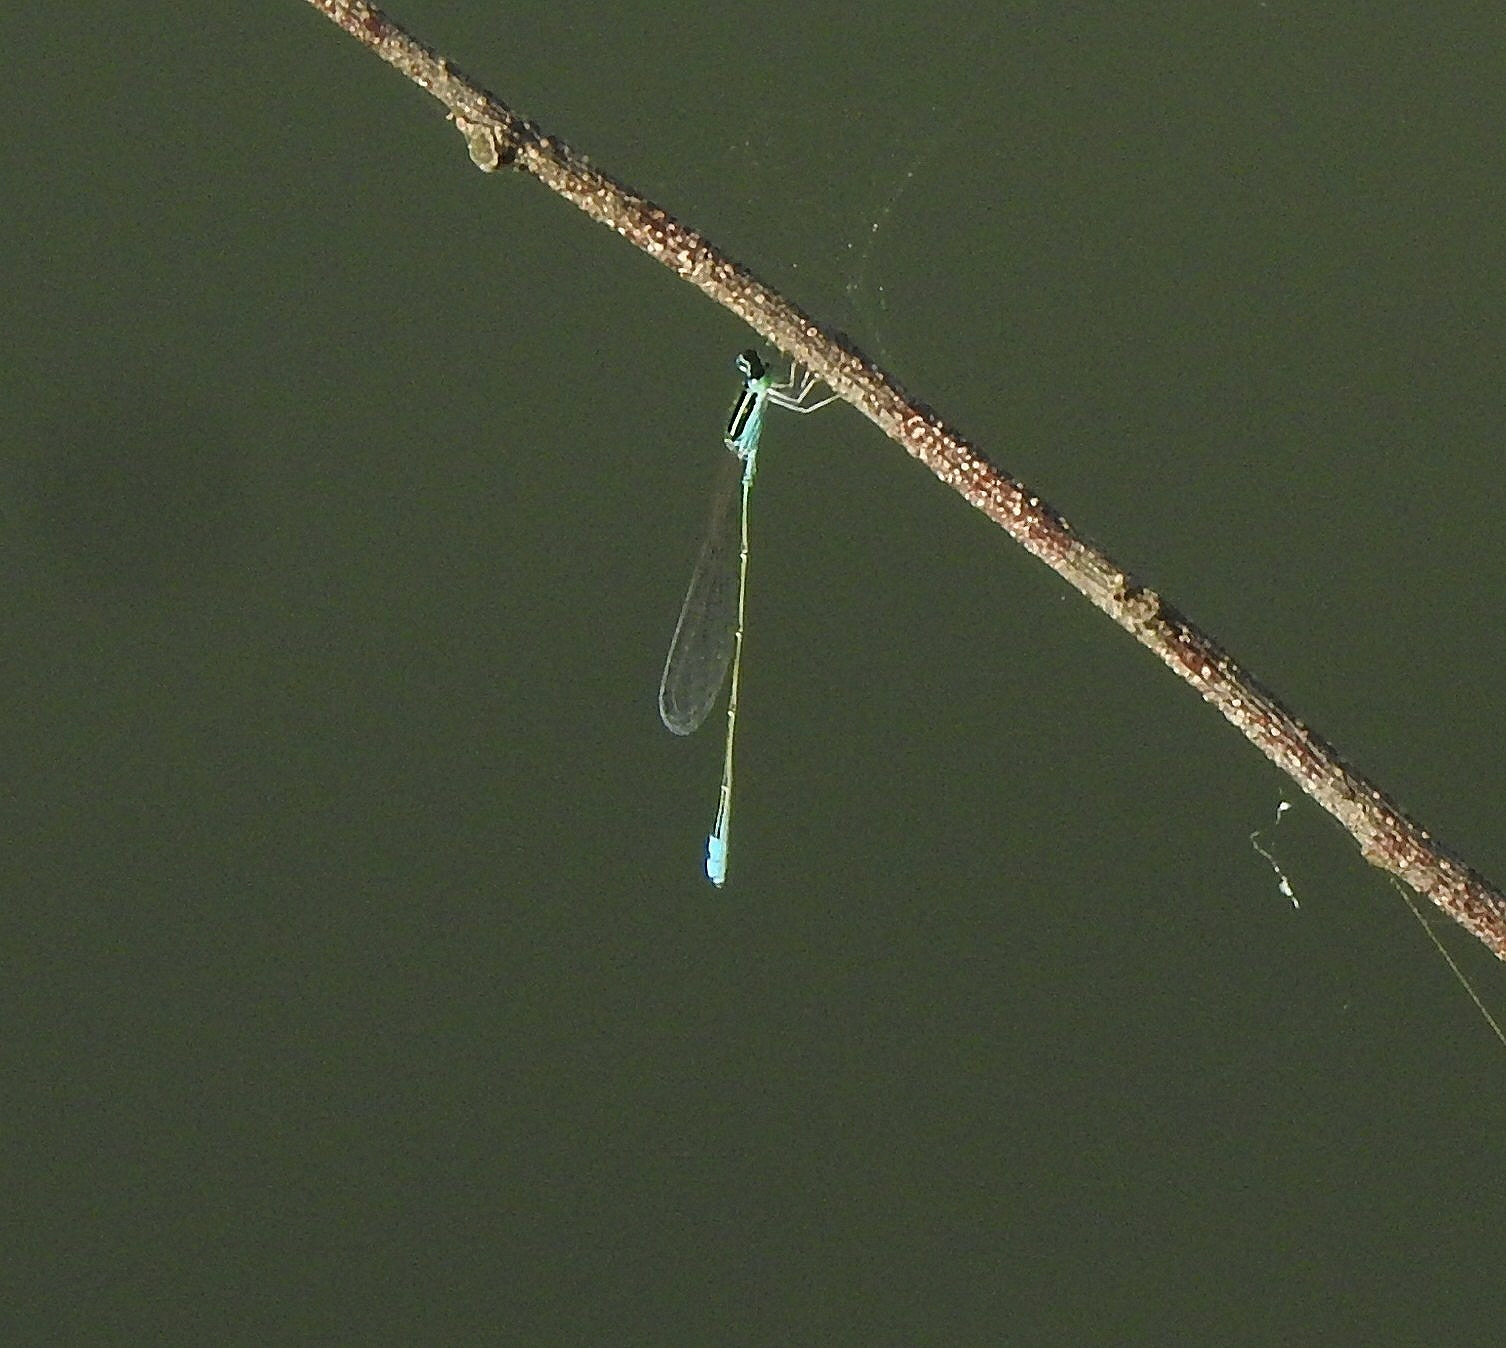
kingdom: Animalia
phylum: Arthropoda
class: Insecta
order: Odonata
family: Coenagrionidae
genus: Aciagrion
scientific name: Aciagrion occidentale
